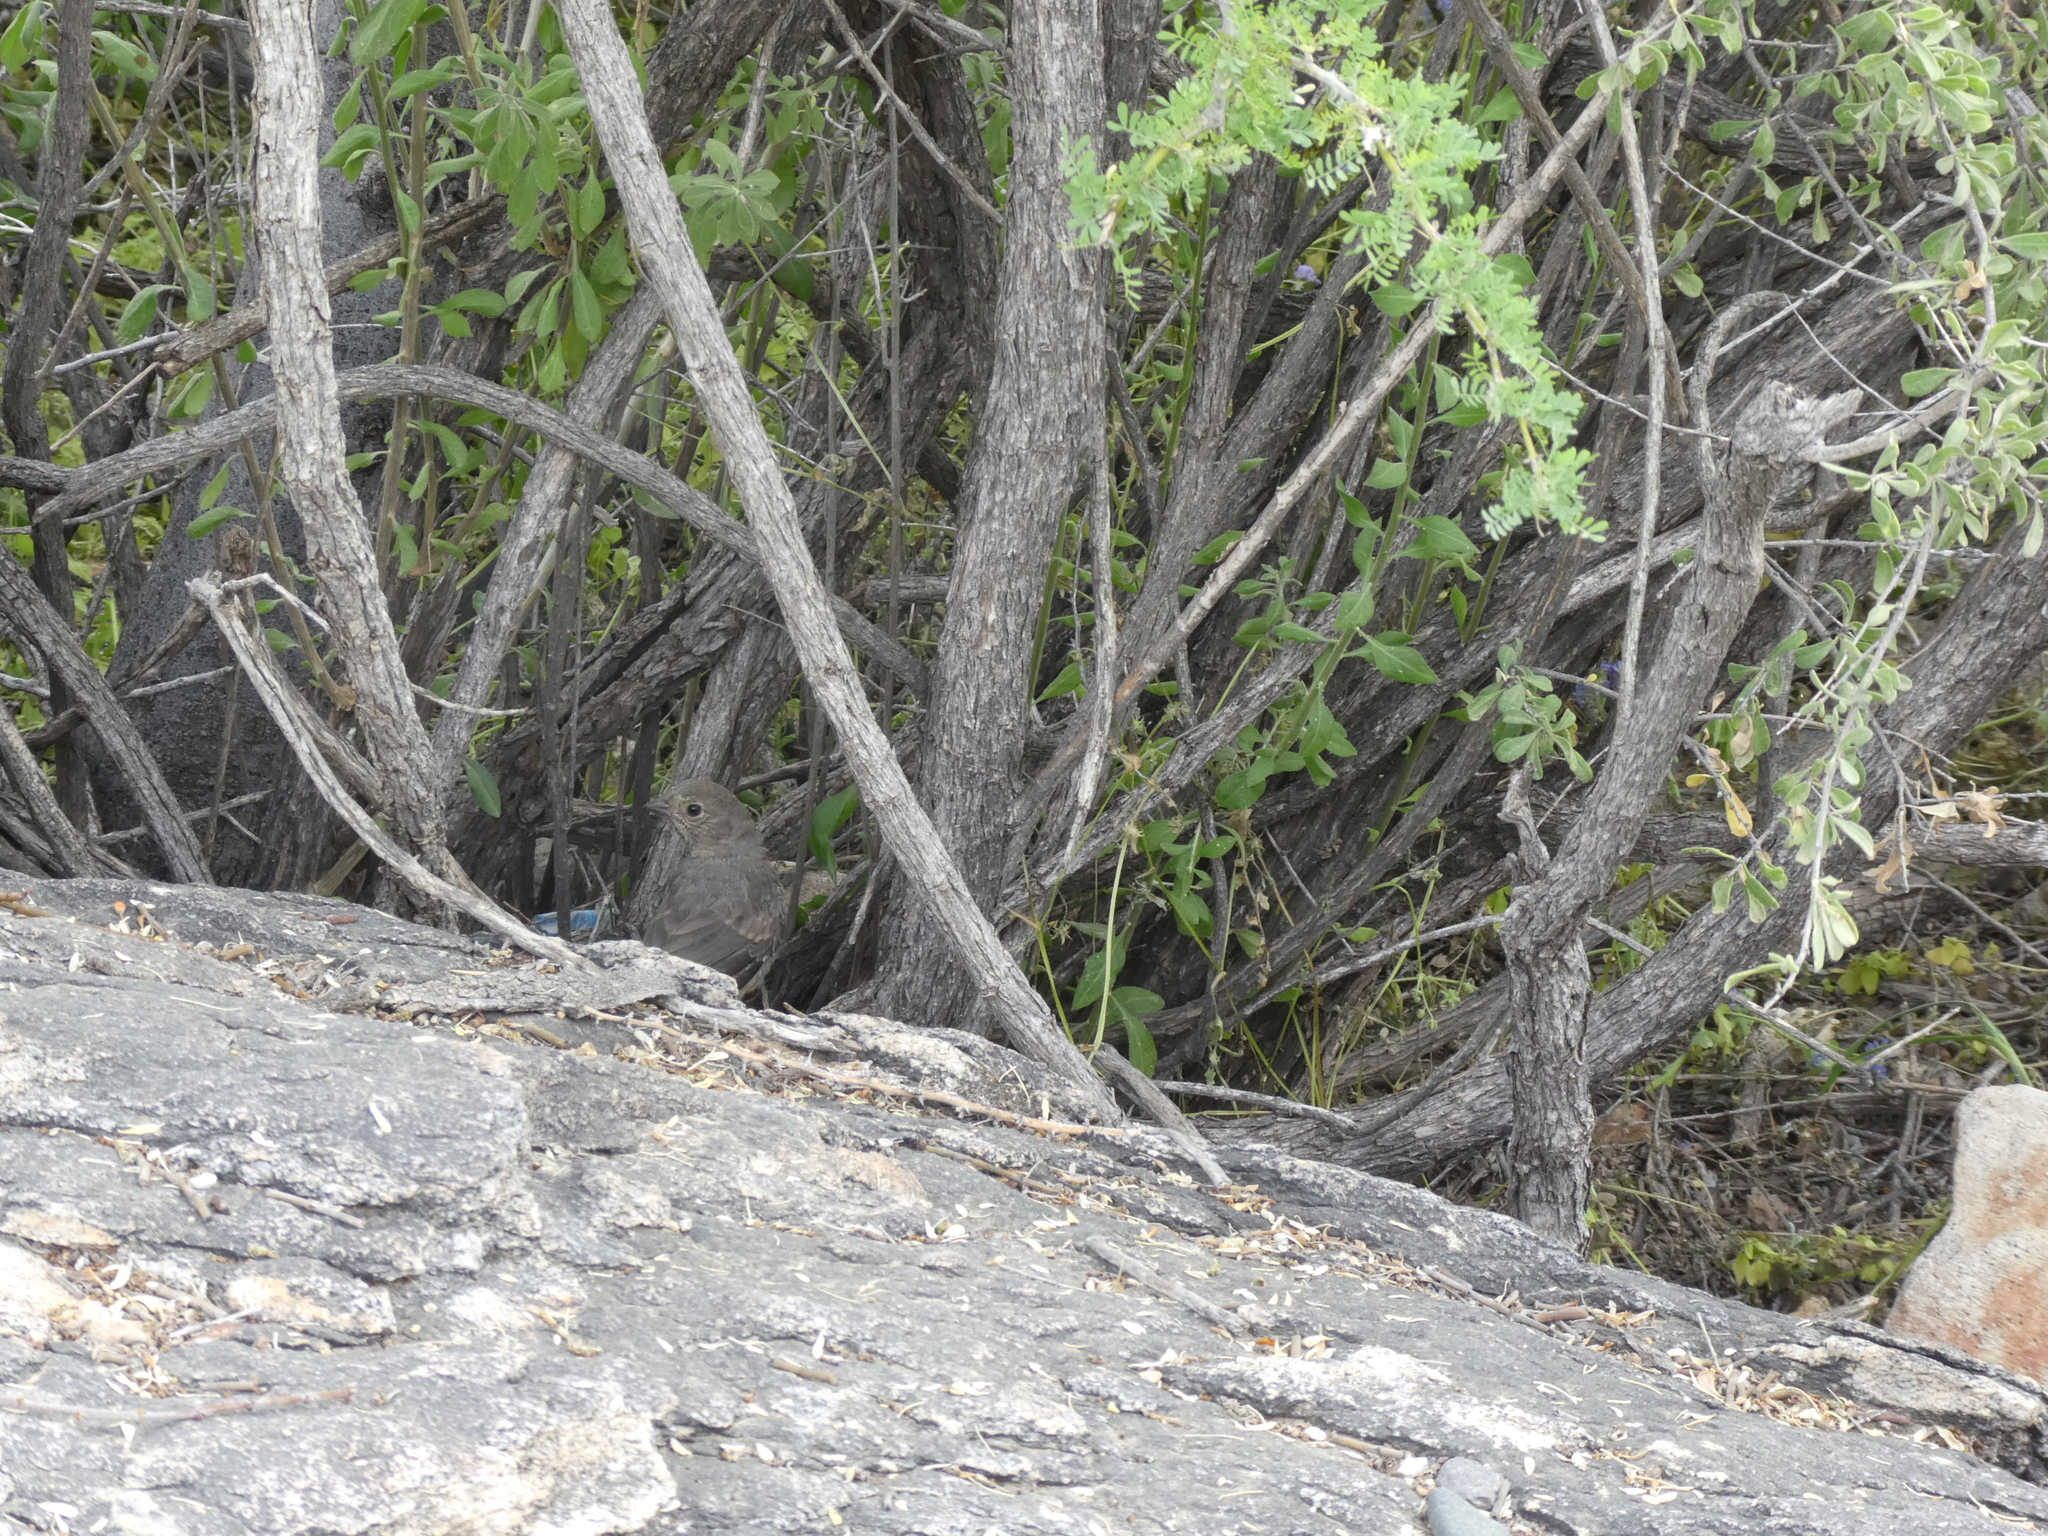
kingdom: Animalia
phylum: Chordata
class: Aves
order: Passeriformes
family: Passerellidae
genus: Melozone
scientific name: Melozone fusca
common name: Canyon towhee
